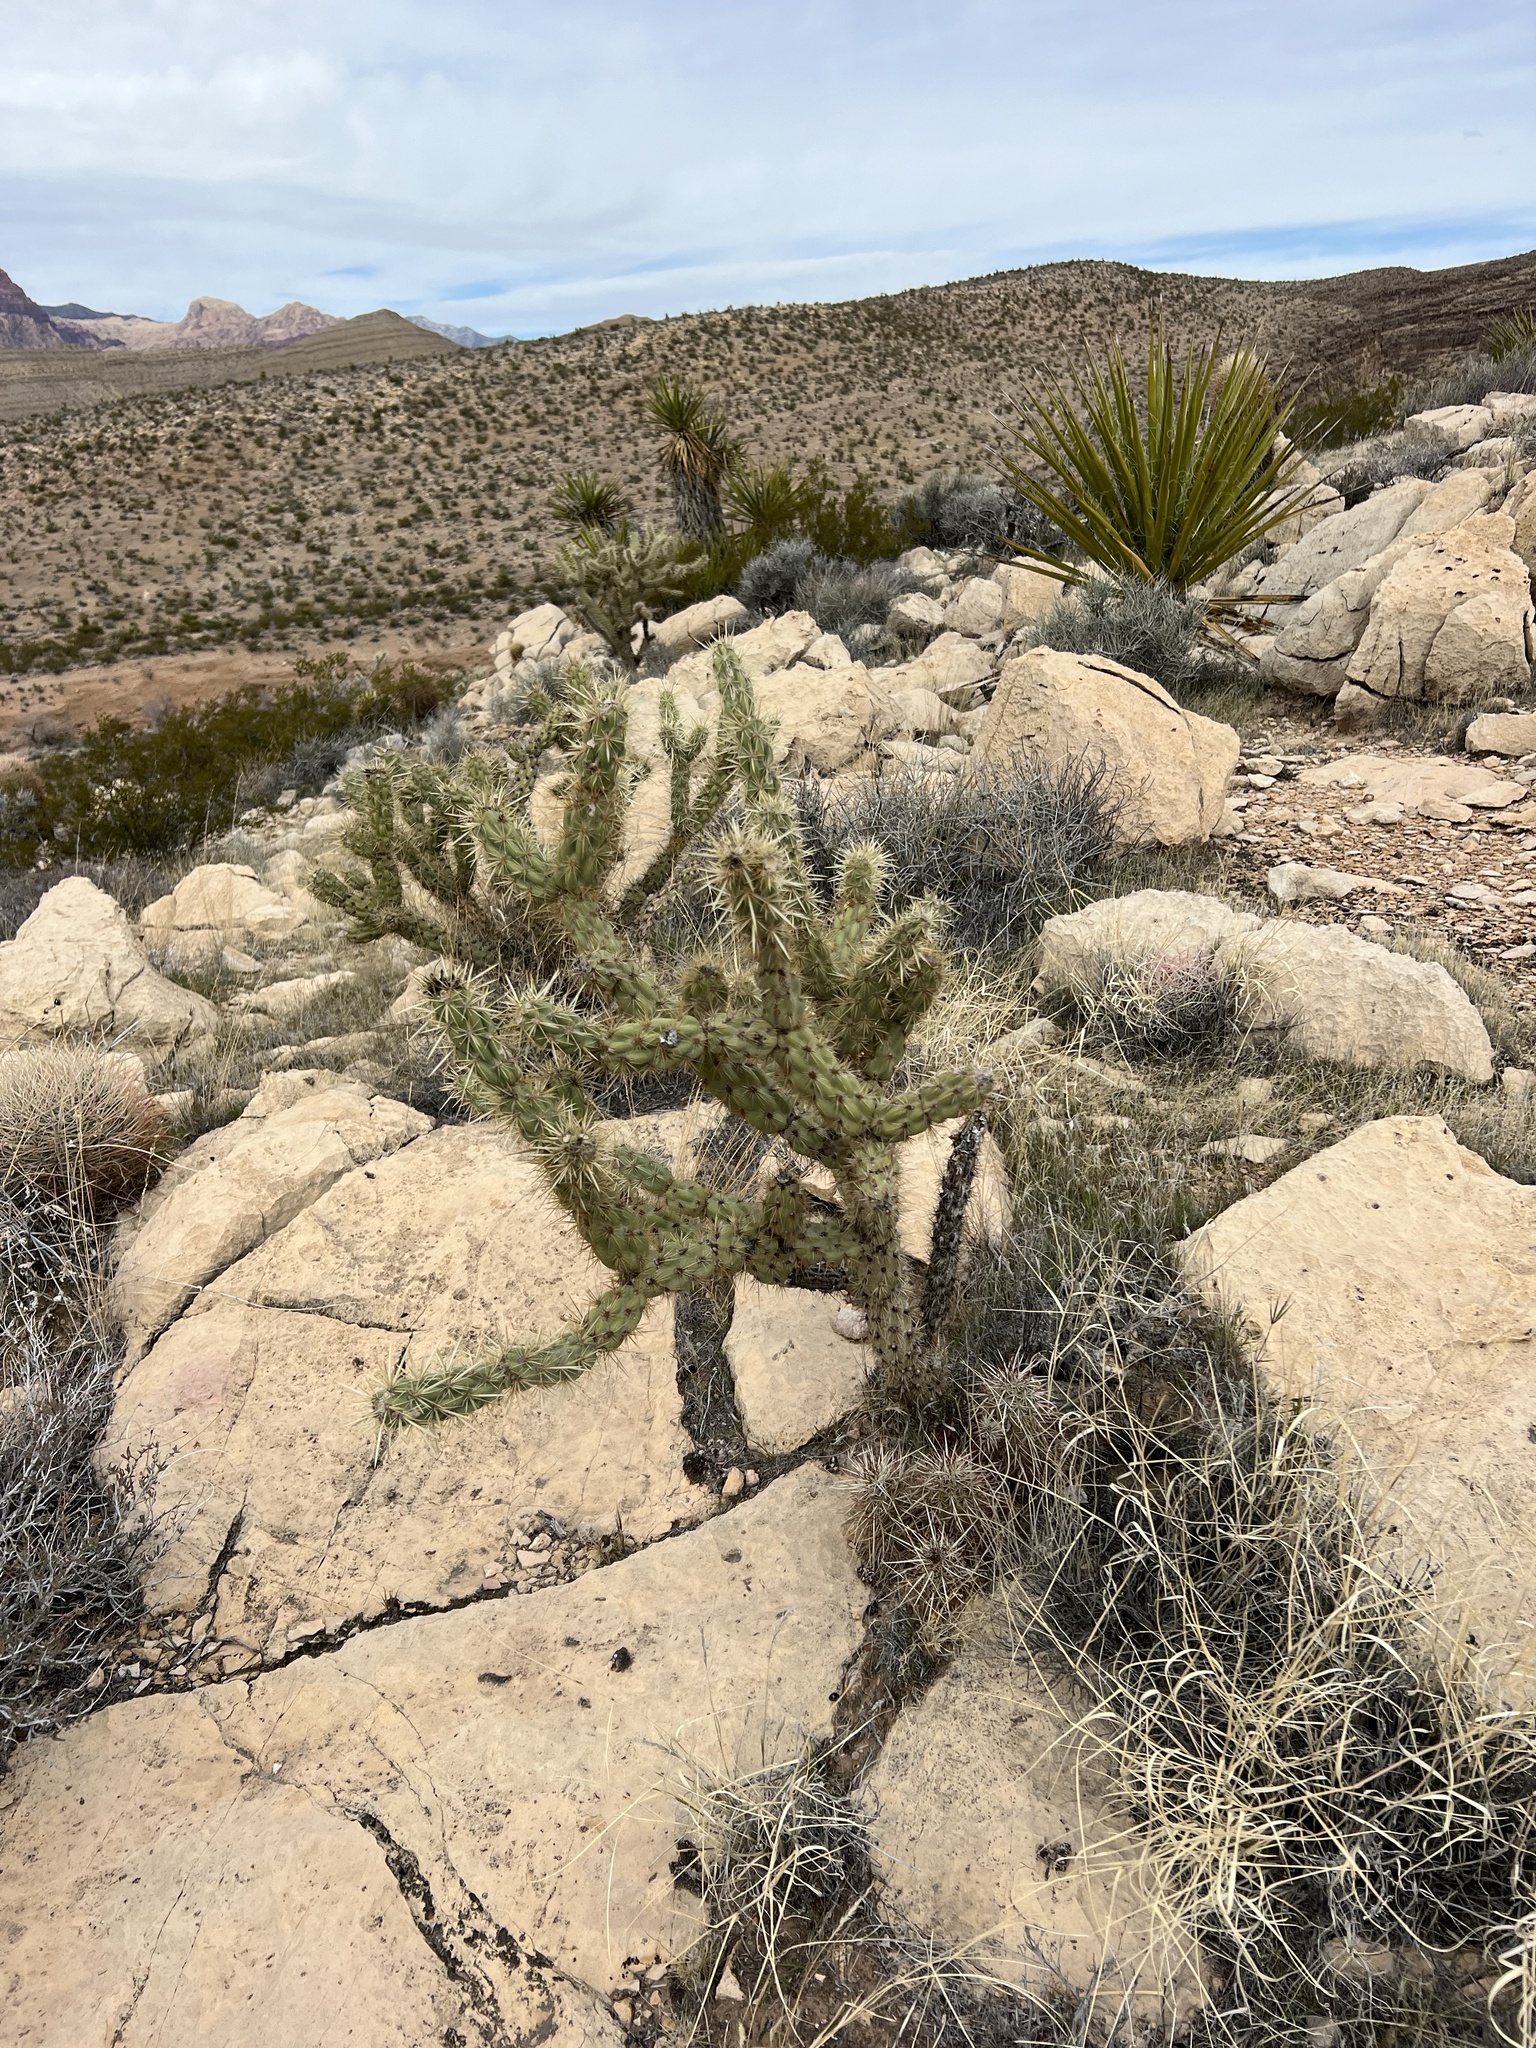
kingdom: Plantae
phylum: Tracheophyta
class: Magnoliopsida
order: Caryophyllales
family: Cactaceae
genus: Cylindropuntia
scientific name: Cylindropuntia acanthocarpa
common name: Buckhorn cholla
